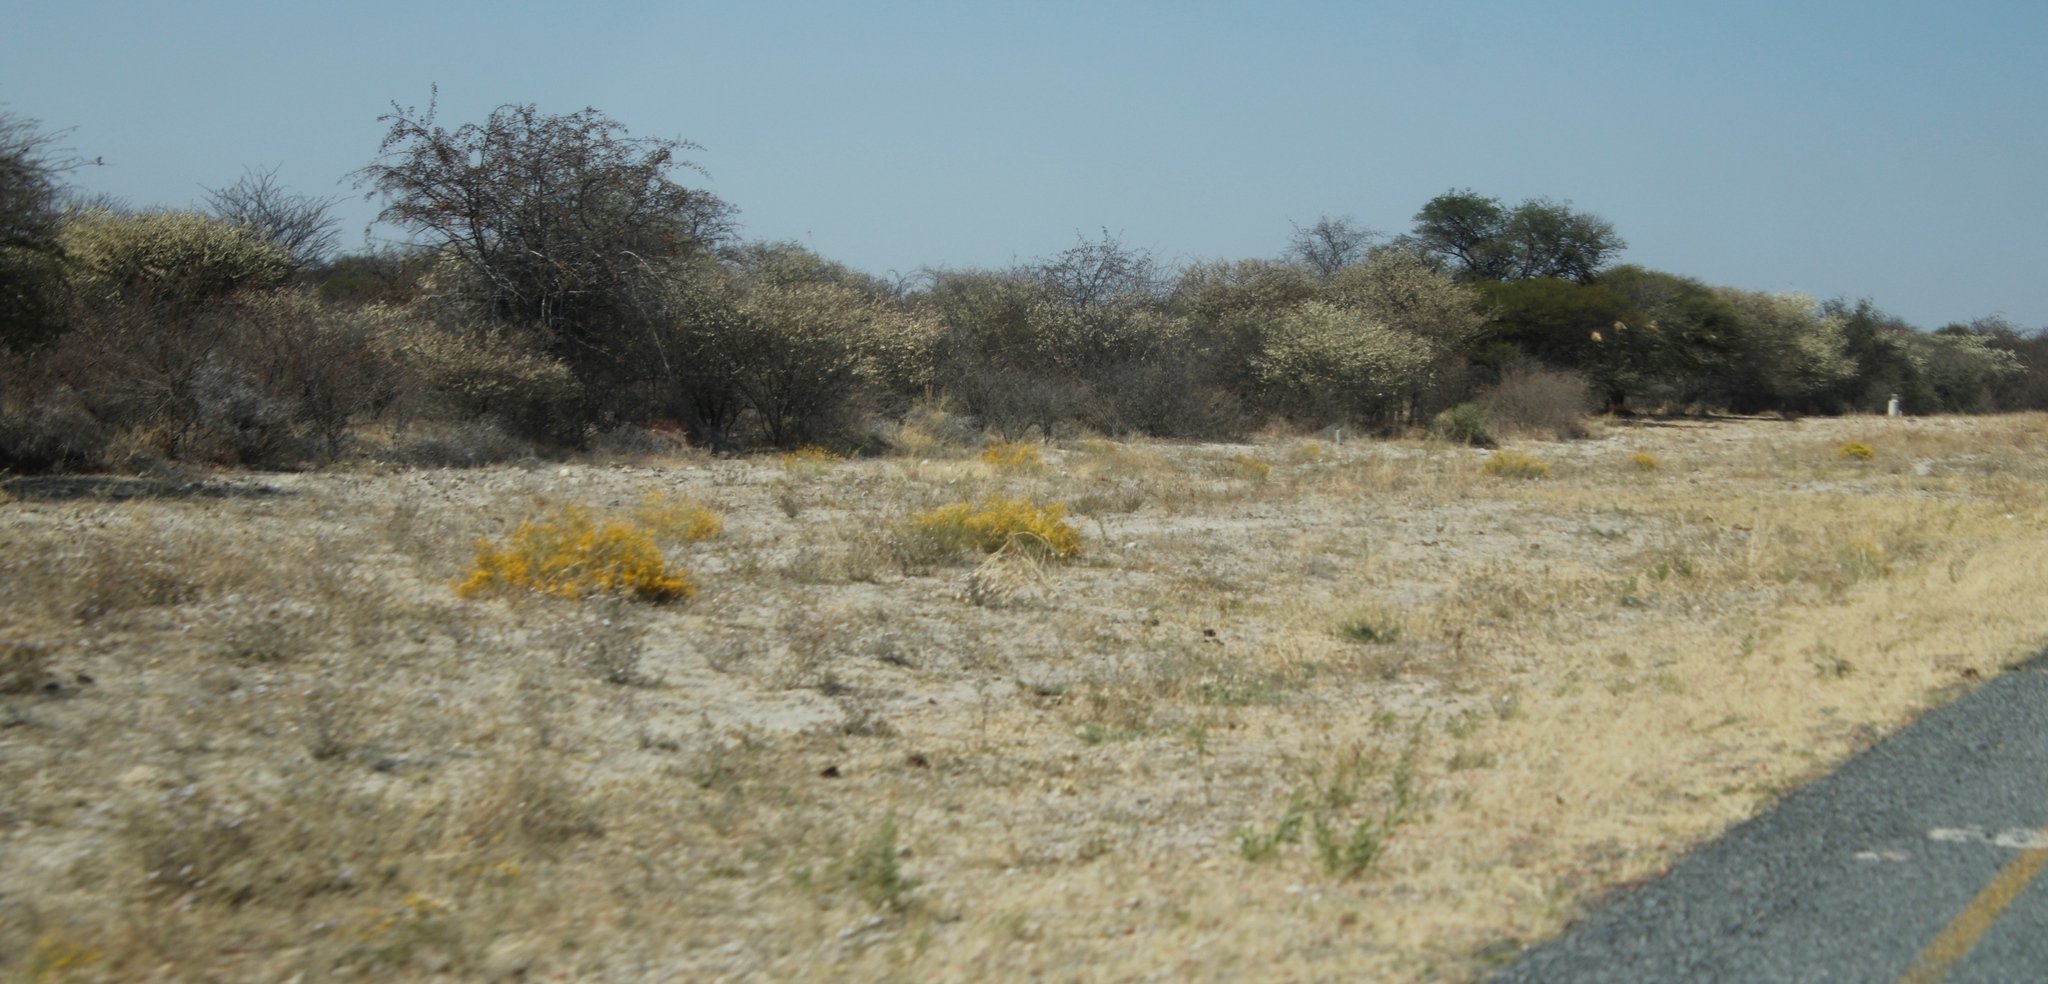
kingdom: Plantae
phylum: Tracheophyta
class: Magnoliopsida
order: Malvales
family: Thymelaeaceae
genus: Gnidia
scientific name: Gnidia polycephala
